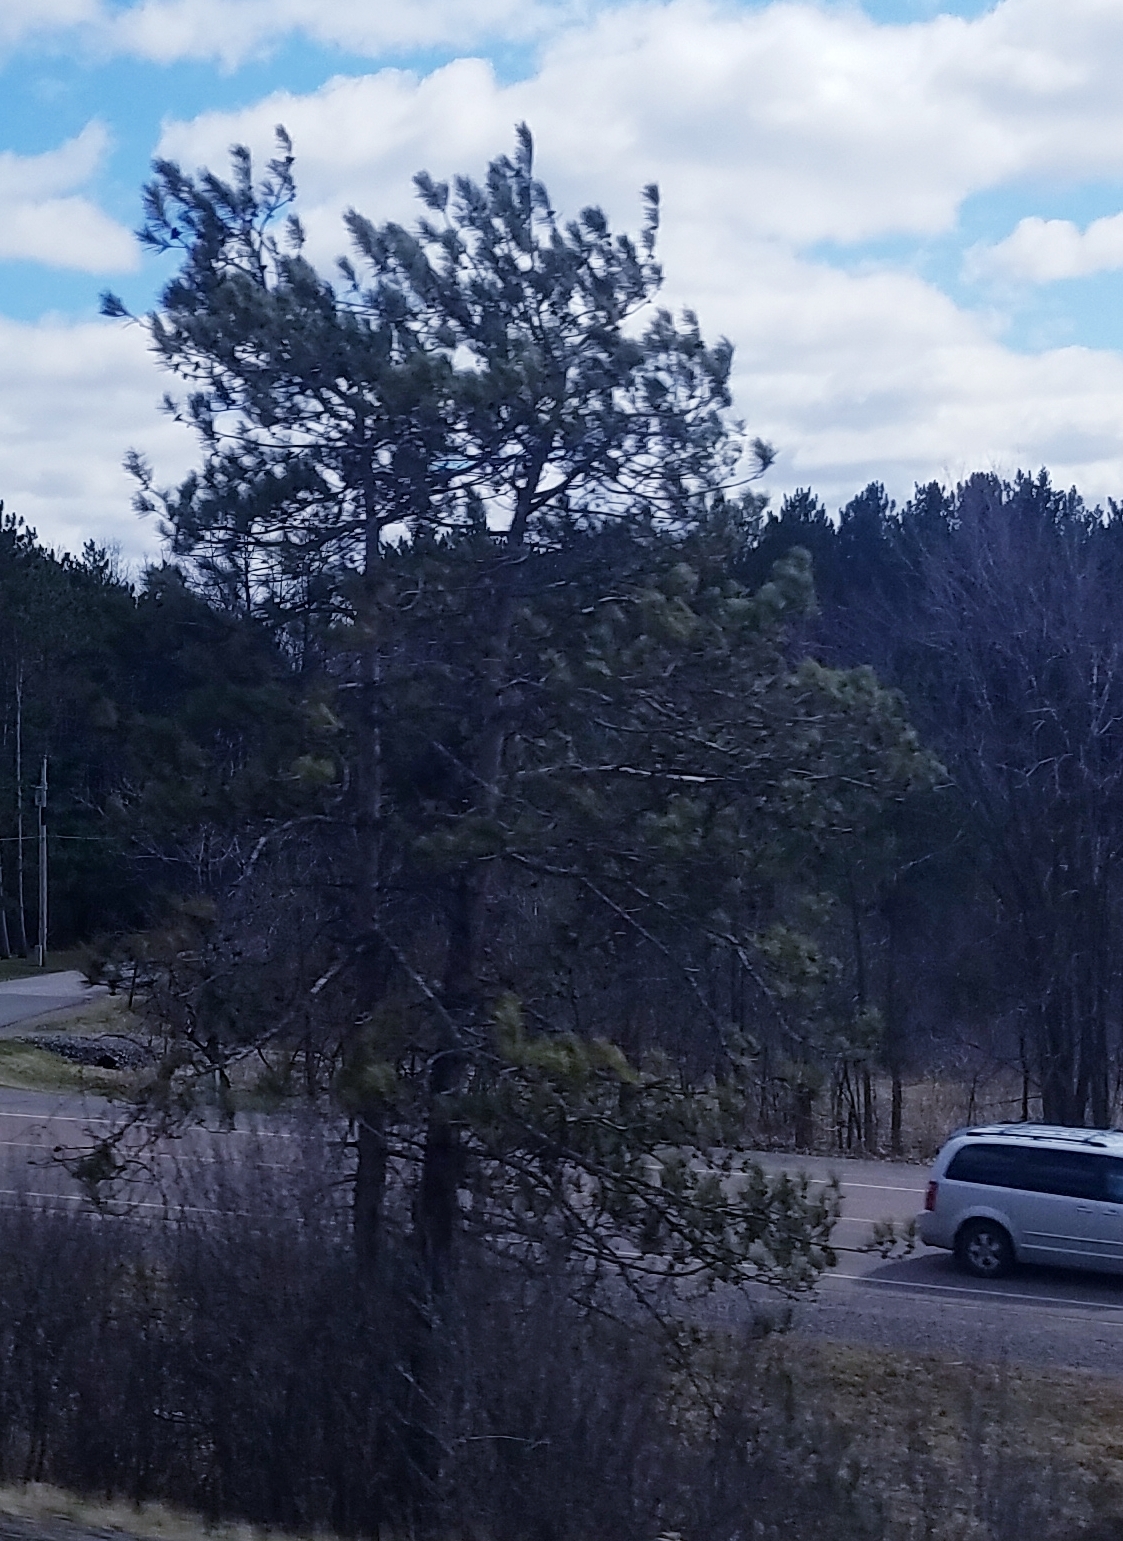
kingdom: Plantae
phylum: Tracheophyta
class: Pinopsida
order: Pinales
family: Pinaceae
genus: Pinus
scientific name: Pinus resinosa
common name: Norway pine
